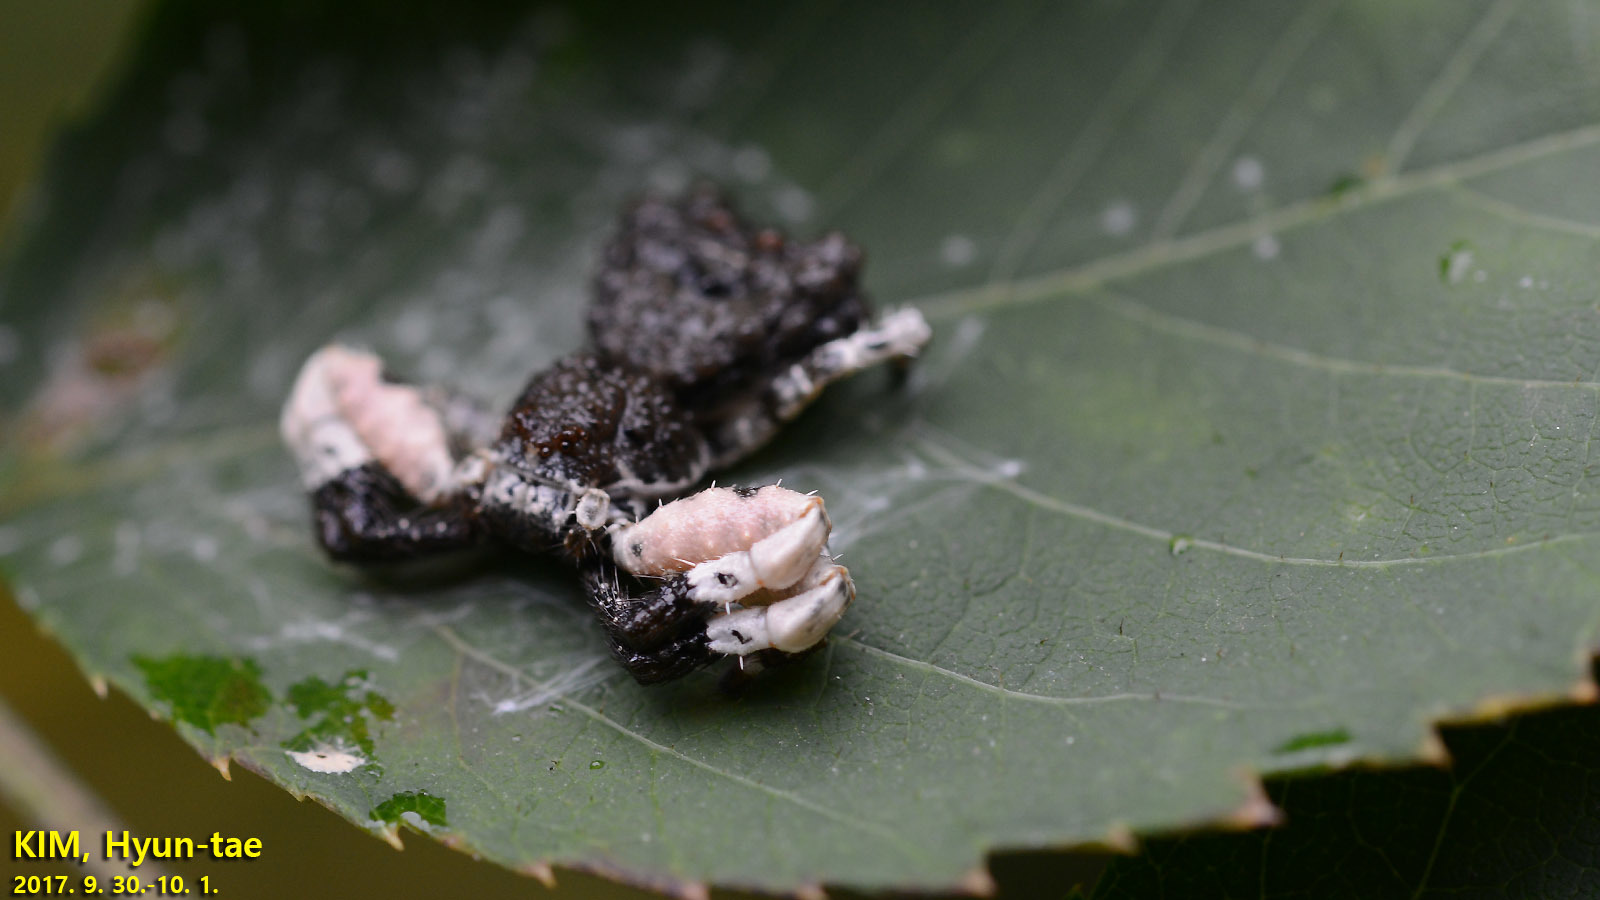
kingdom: Animalia
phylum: Arthropoda
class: Arachnida
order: Araneae
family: Thomisidae
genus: Phrynarachne
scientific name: Phrynarachne katoi
